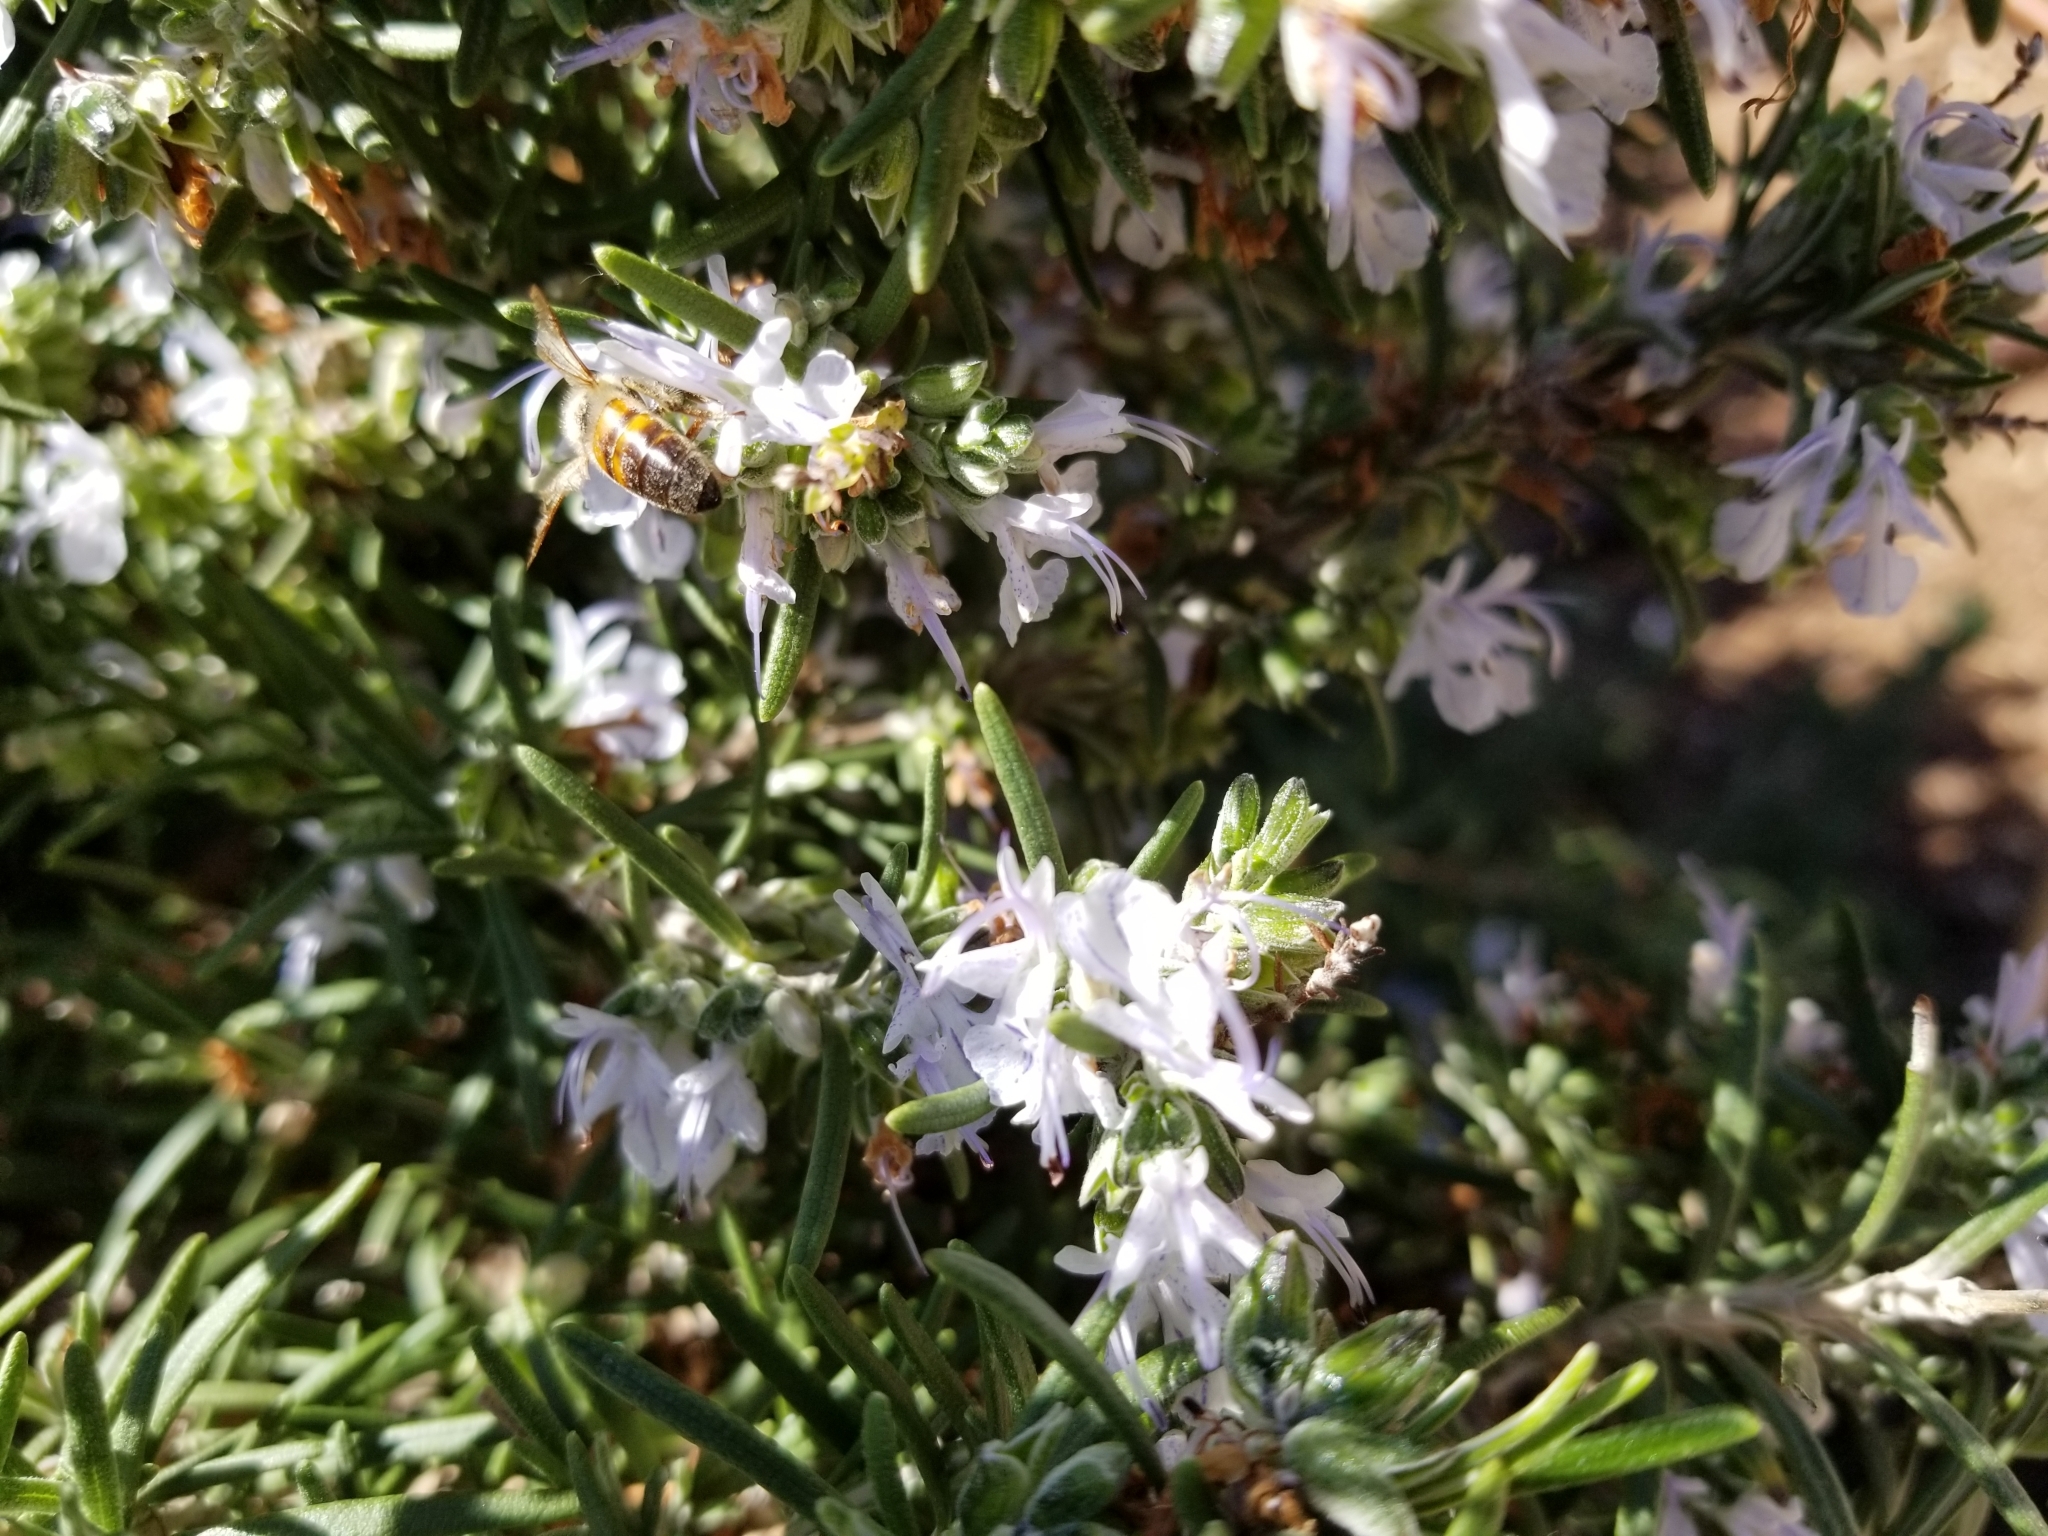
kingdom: Animalia
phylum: Arthropoda
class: Insecta
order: Hymenoptera
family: Apidae
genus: Apis
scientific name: Apis mellifera
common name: Honey bee
